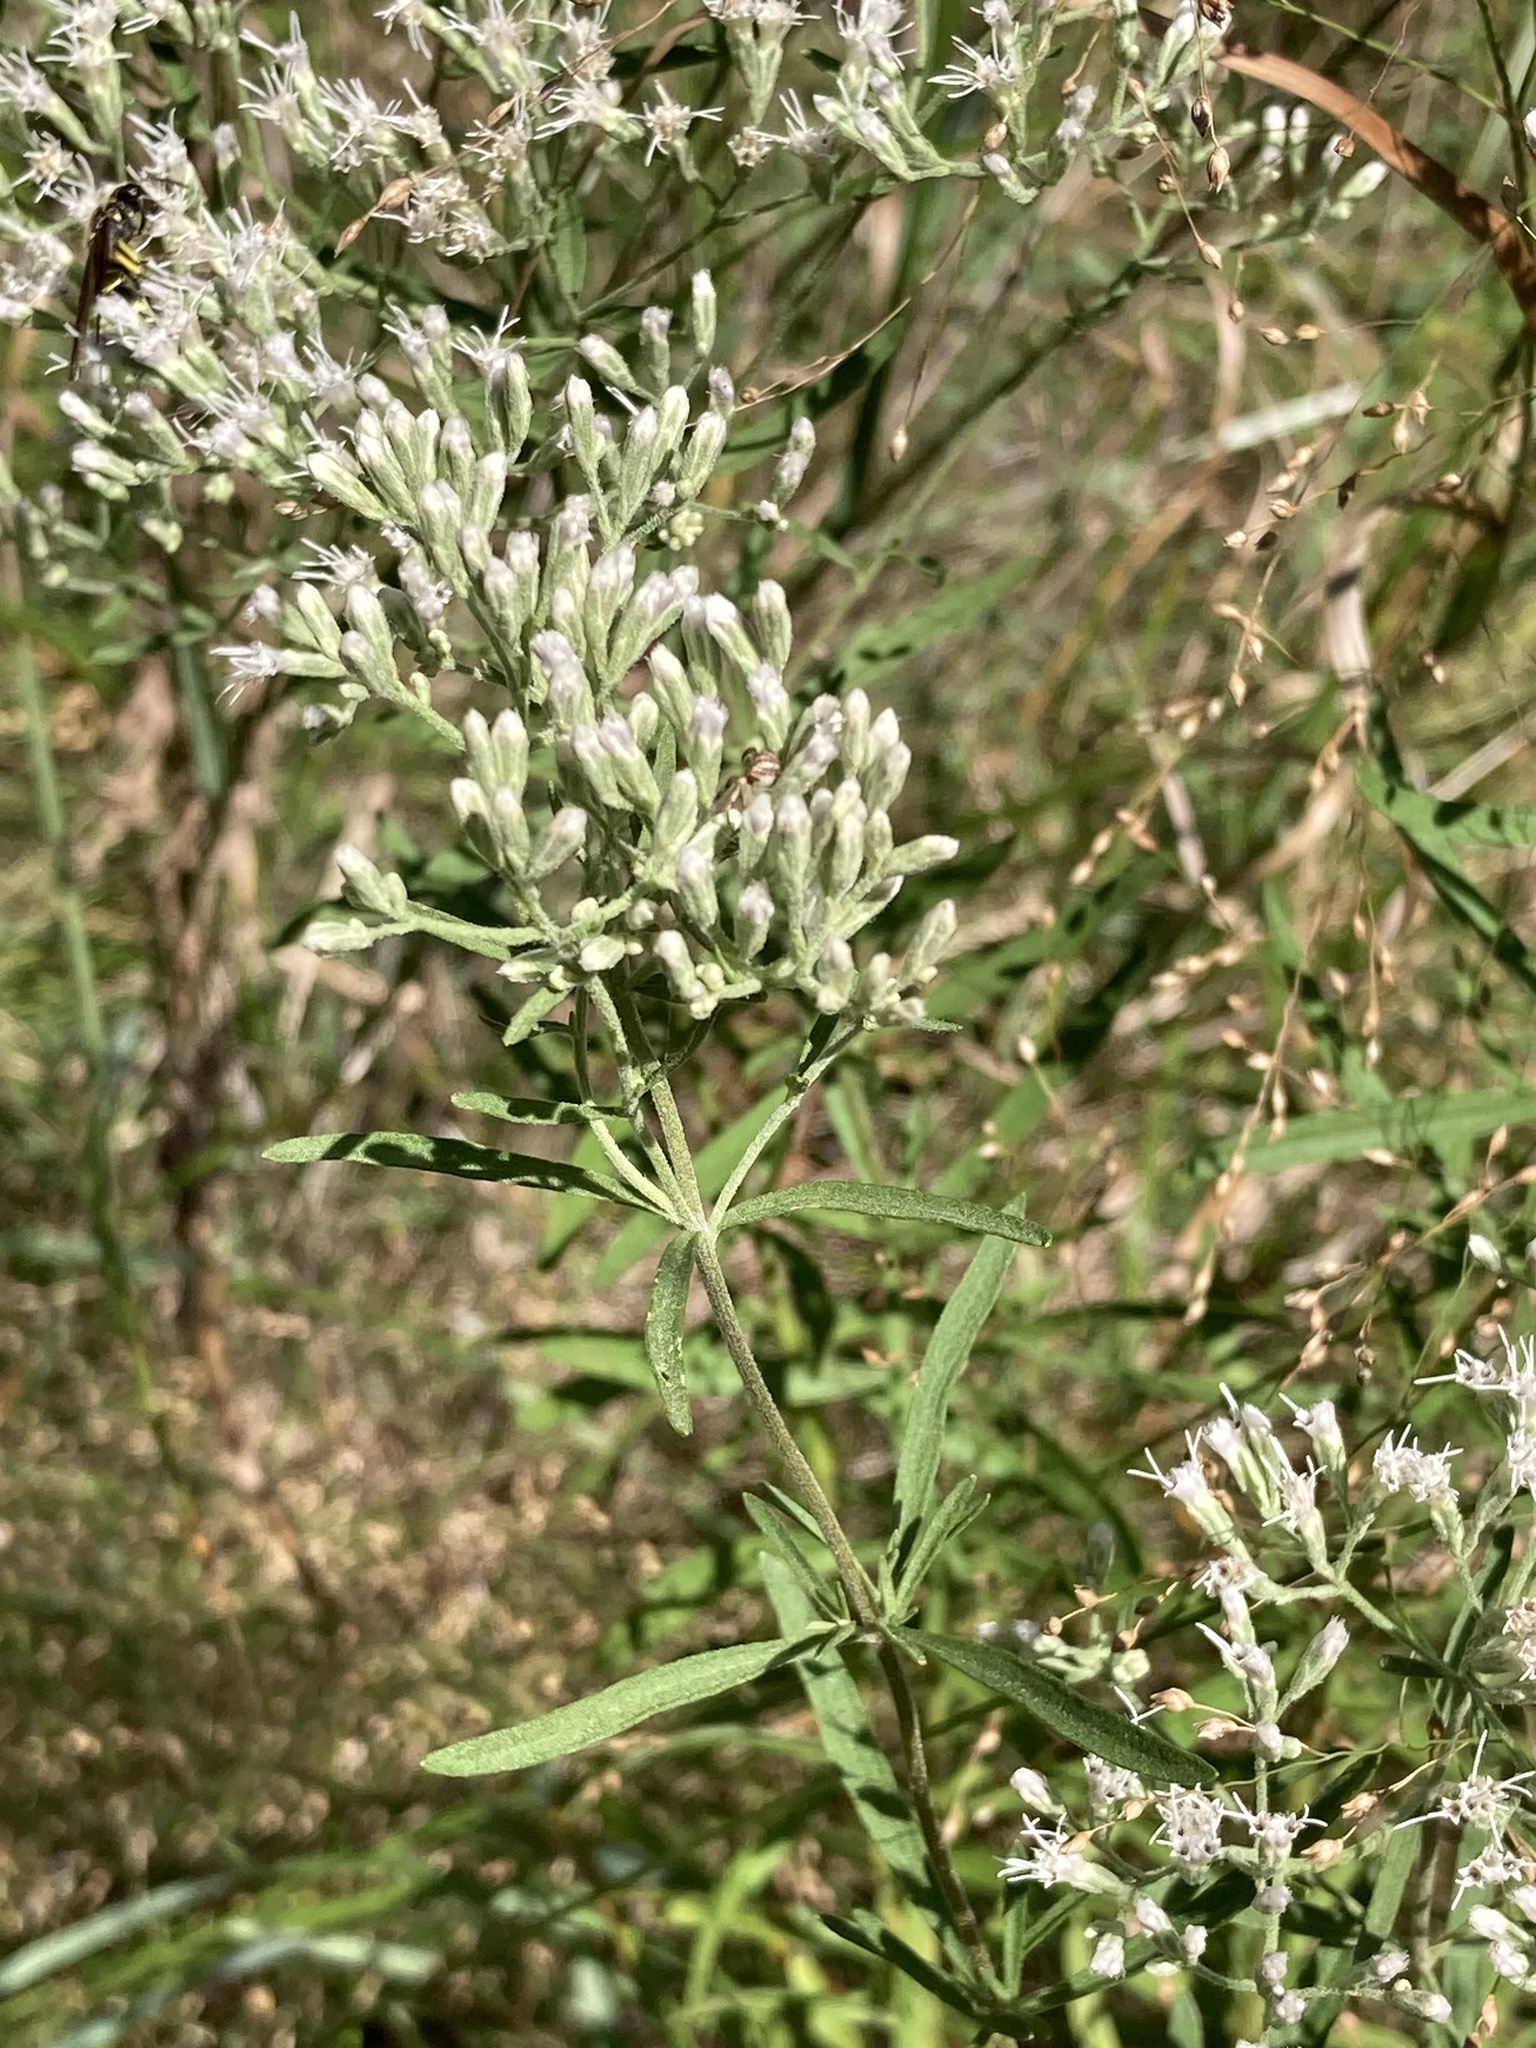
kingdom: Plantae
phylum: Tracheophyta
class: Magnoliopsida
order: Asterales
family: Asteraceae
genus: Eupatorium
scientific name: Eupatorium torreyanum
